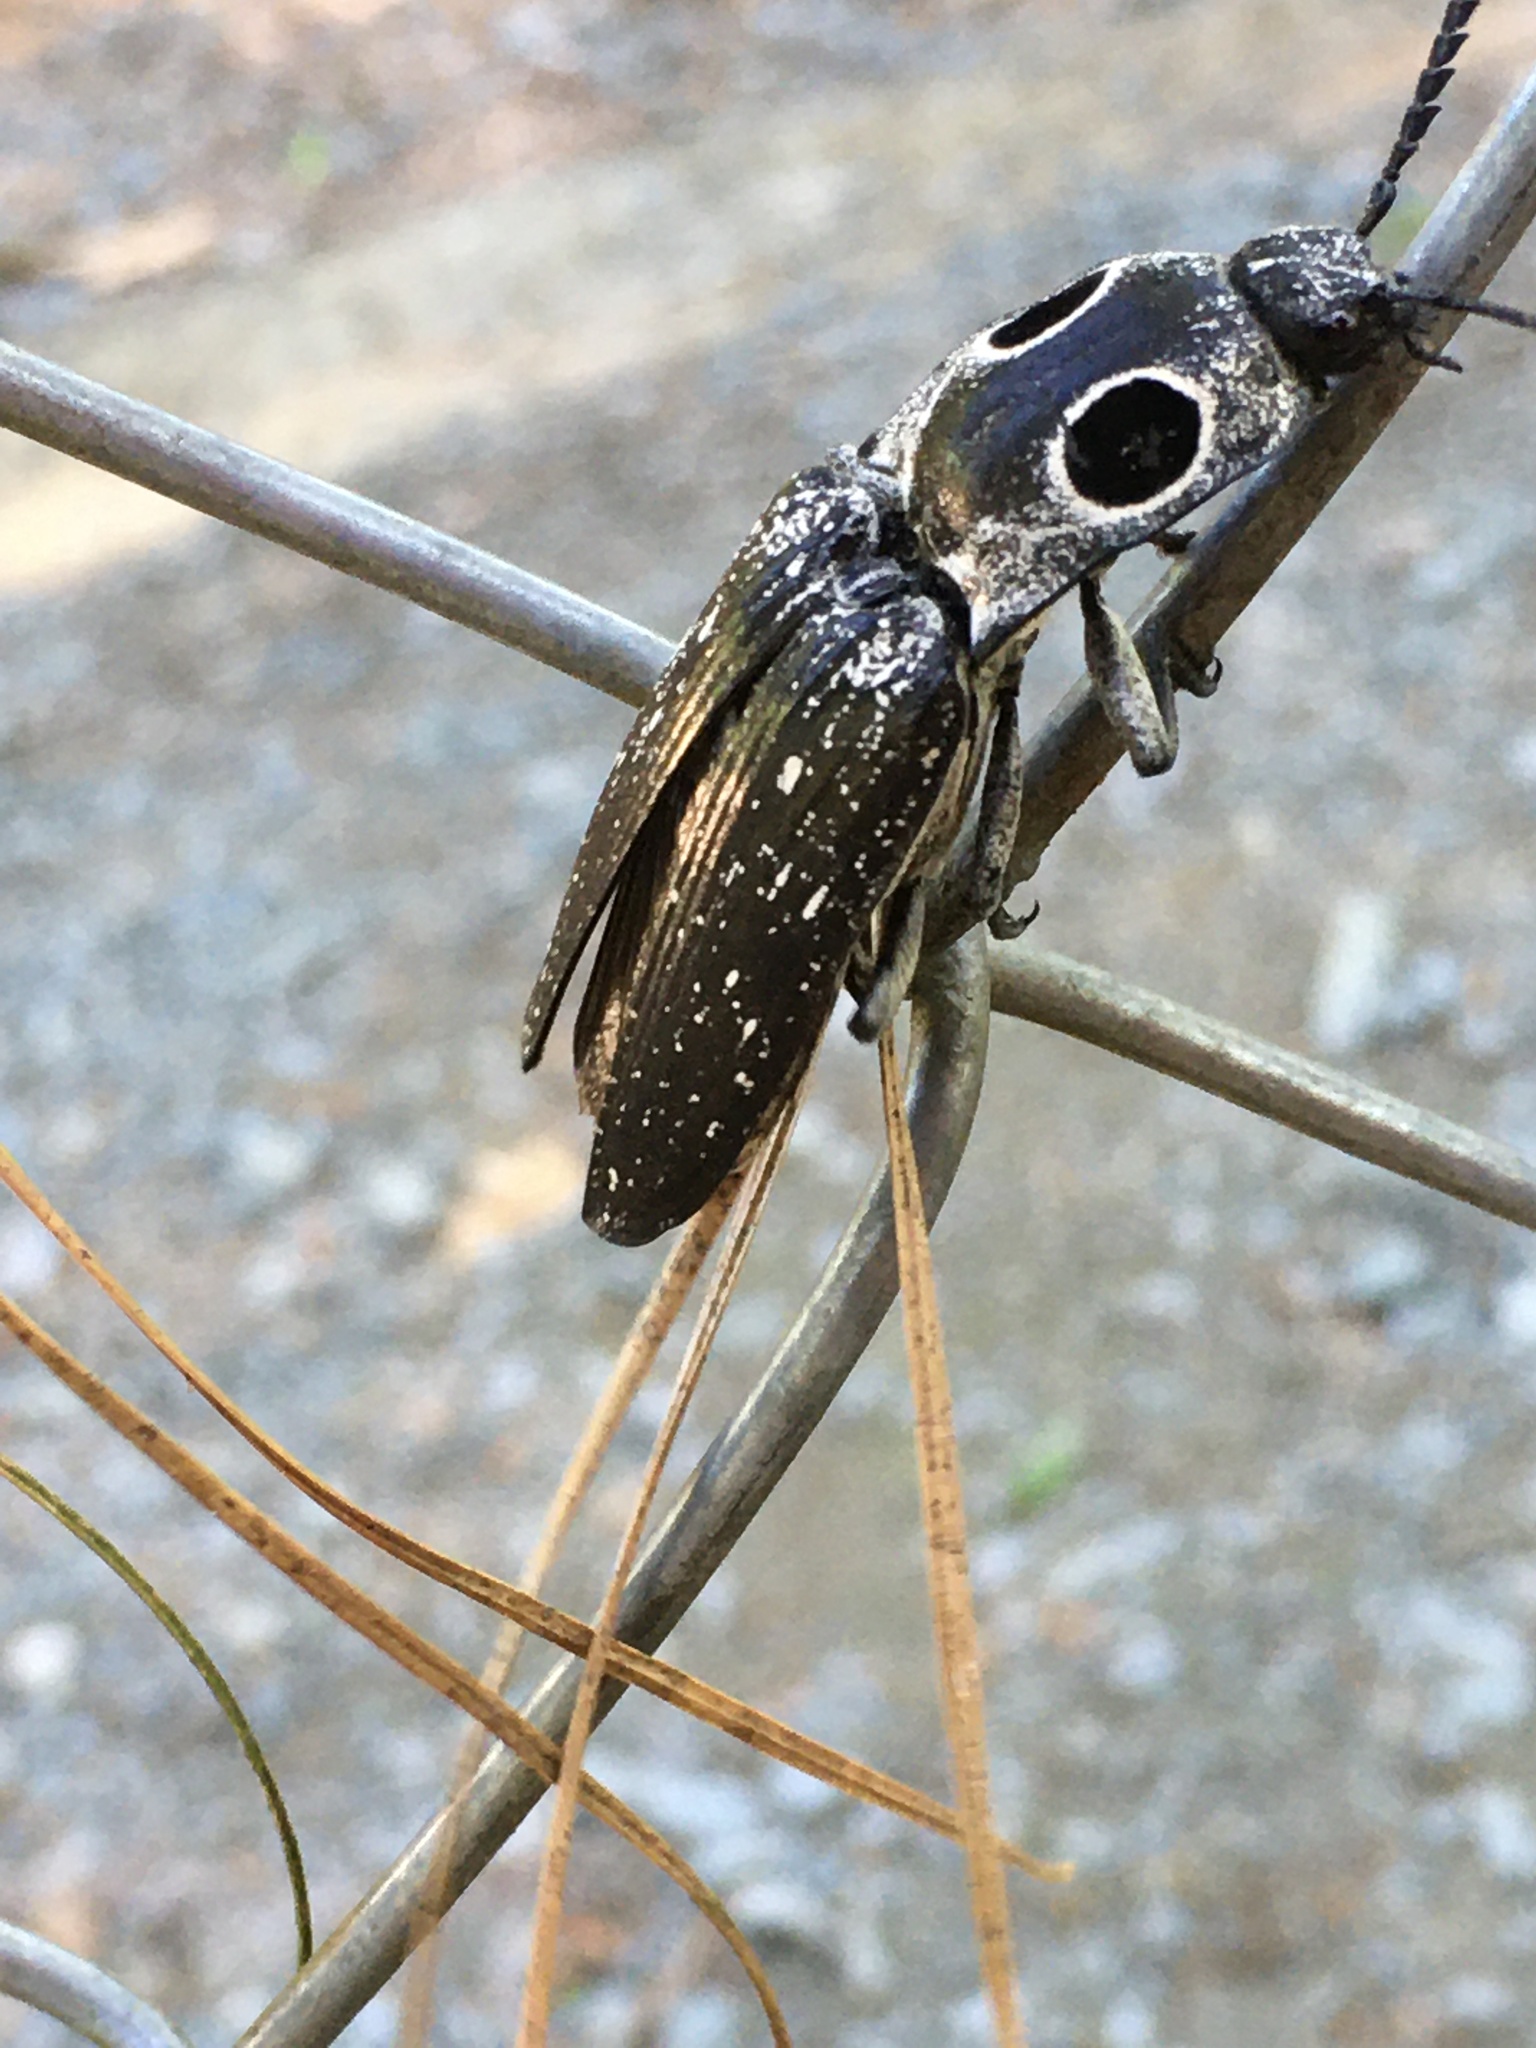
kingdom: Animalia
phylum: Arthropoda
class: Insecta
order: Coleoptera
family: Elateridae
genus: Alaus
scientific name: Alaus oculatus
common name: Eastern eyed click beetle
